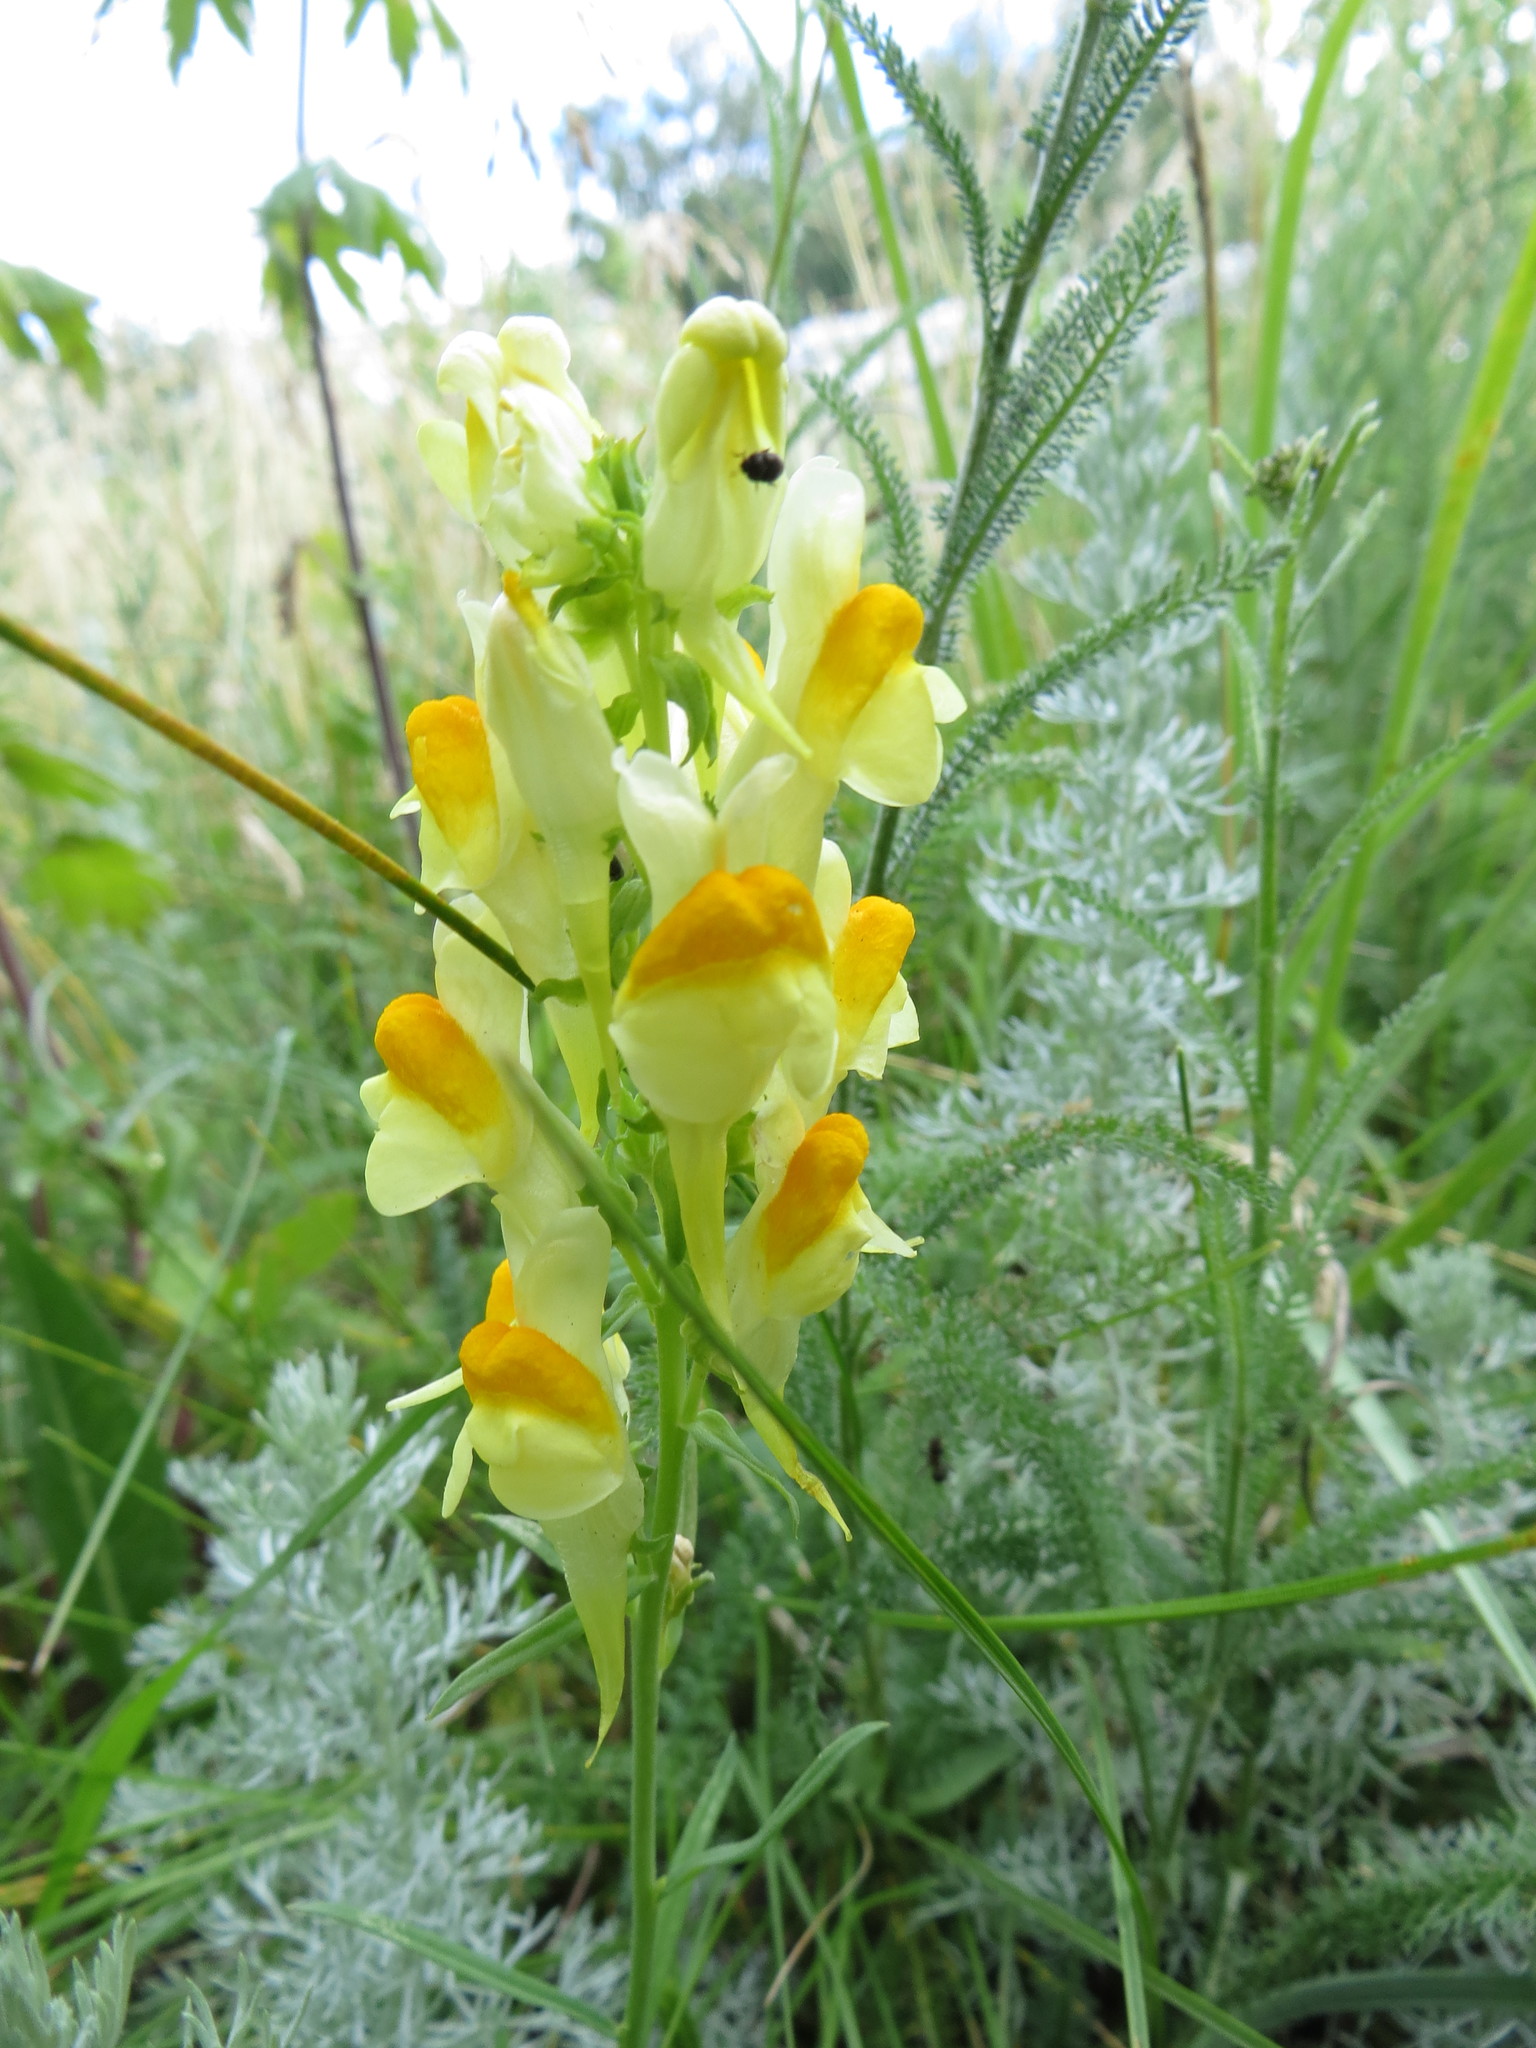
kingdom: Plantae
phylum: Tracheophyta
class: Magnoliopsida
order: Lamiales
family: Plantaginaceae
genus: Linaria
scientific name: Linaria vulgaris
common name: Butter and eggs
